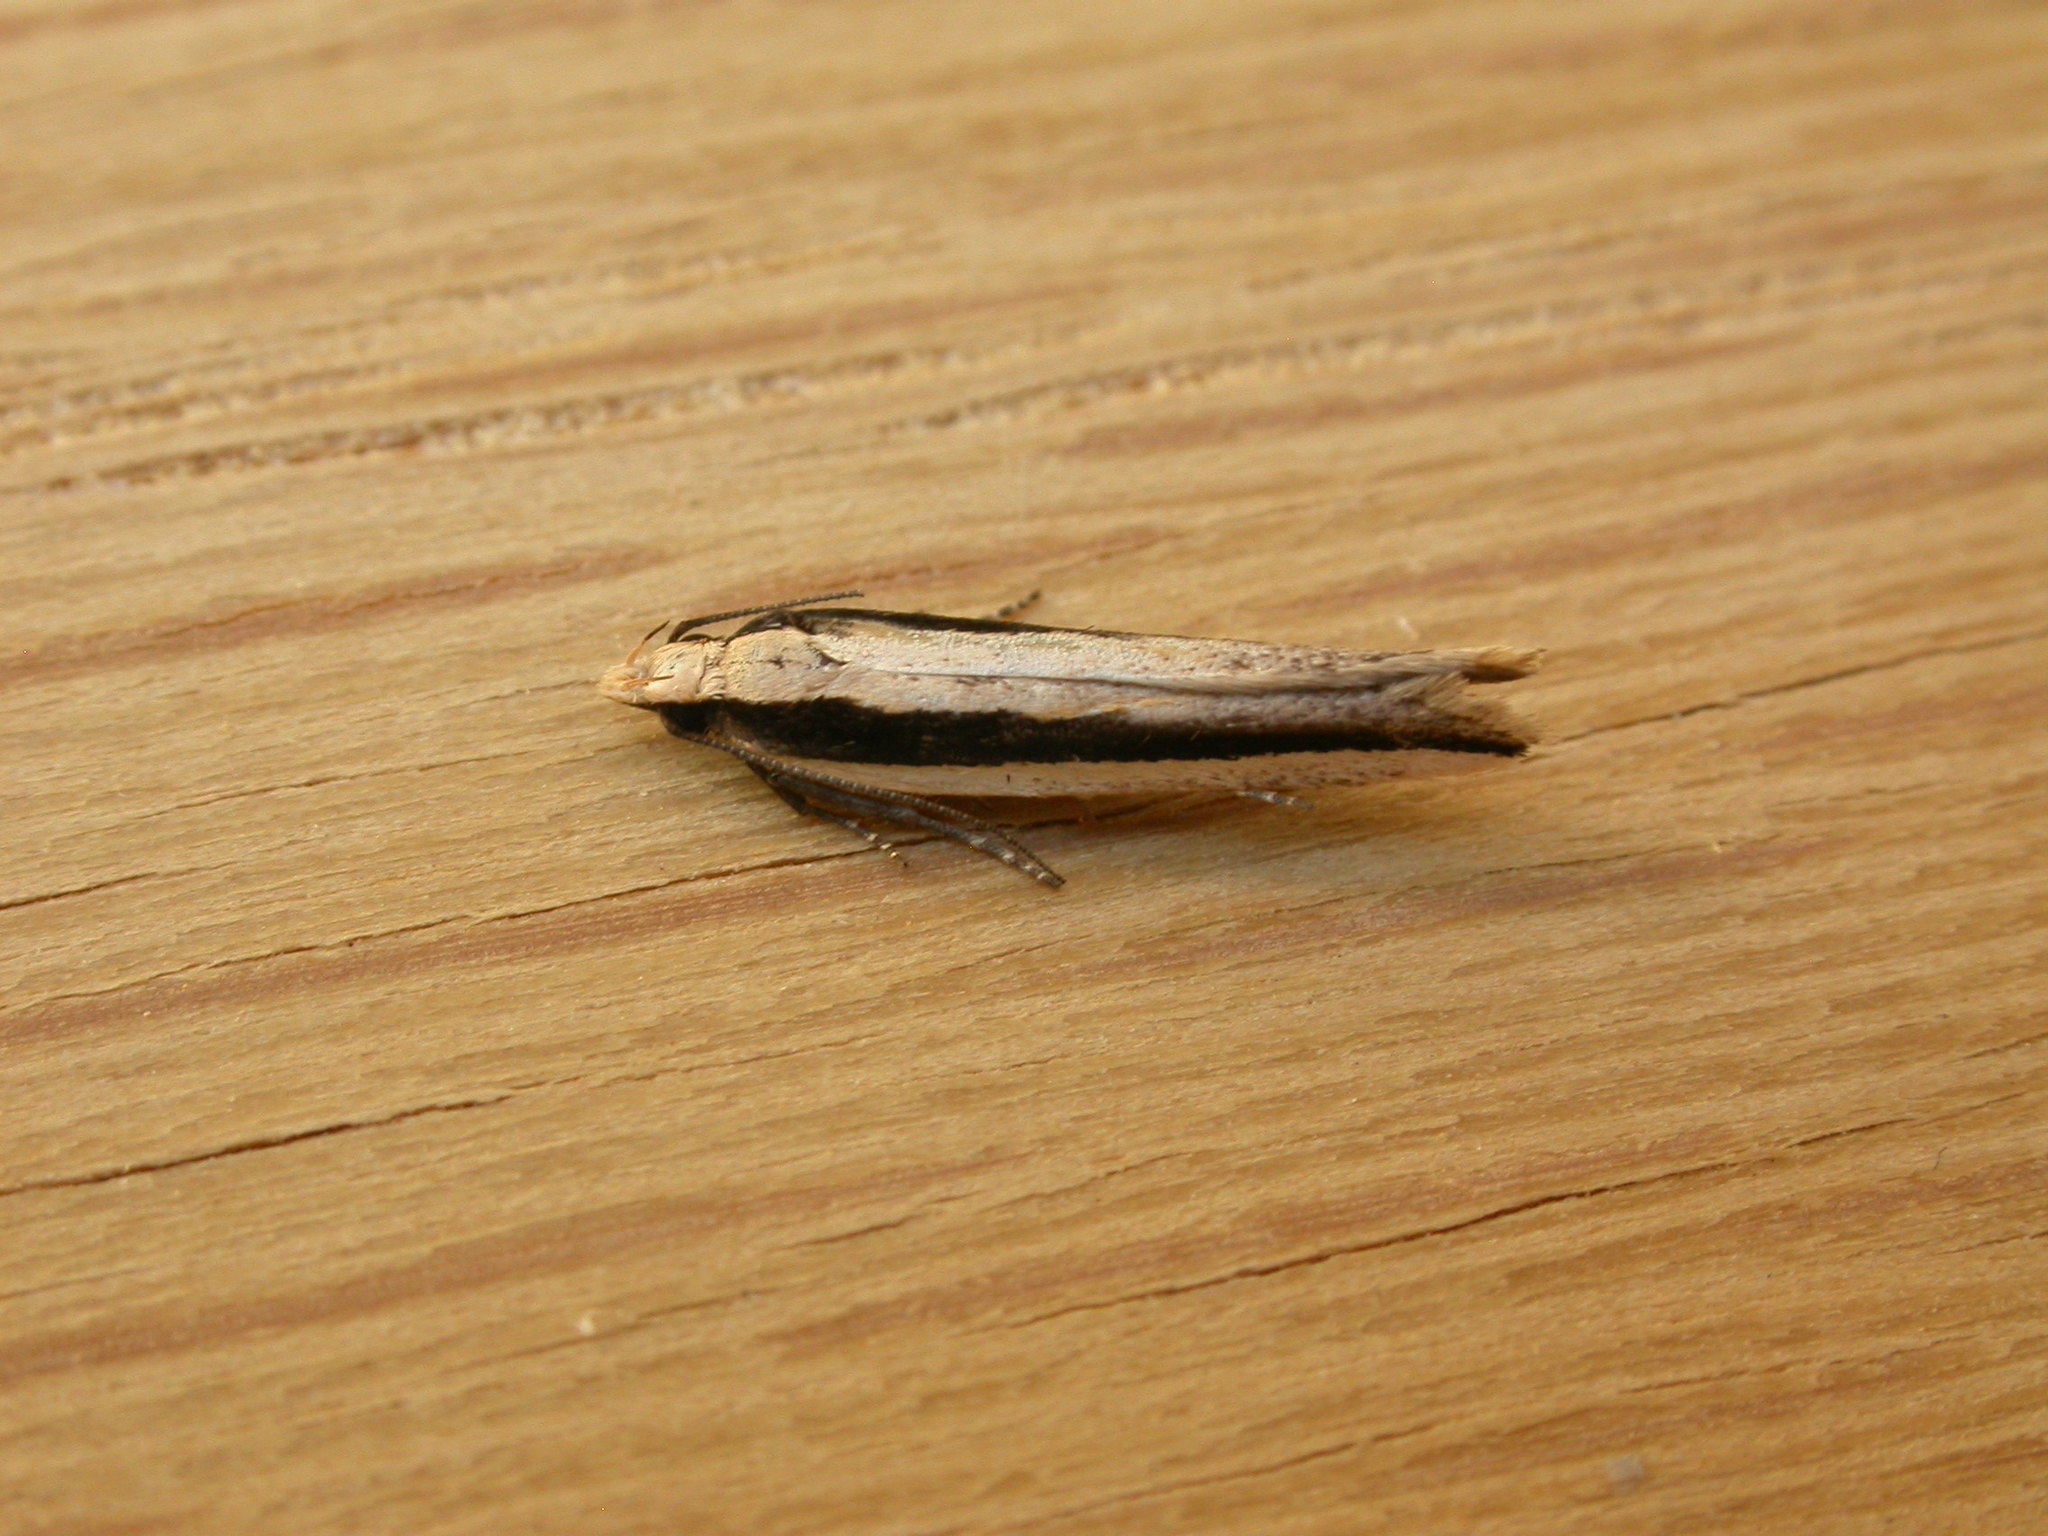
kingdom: Animalia
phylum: Arthropoda
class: Insecta
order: Lepidoptera
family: Gelechiidae
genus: Macrenches
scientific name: Macrenches clerica
